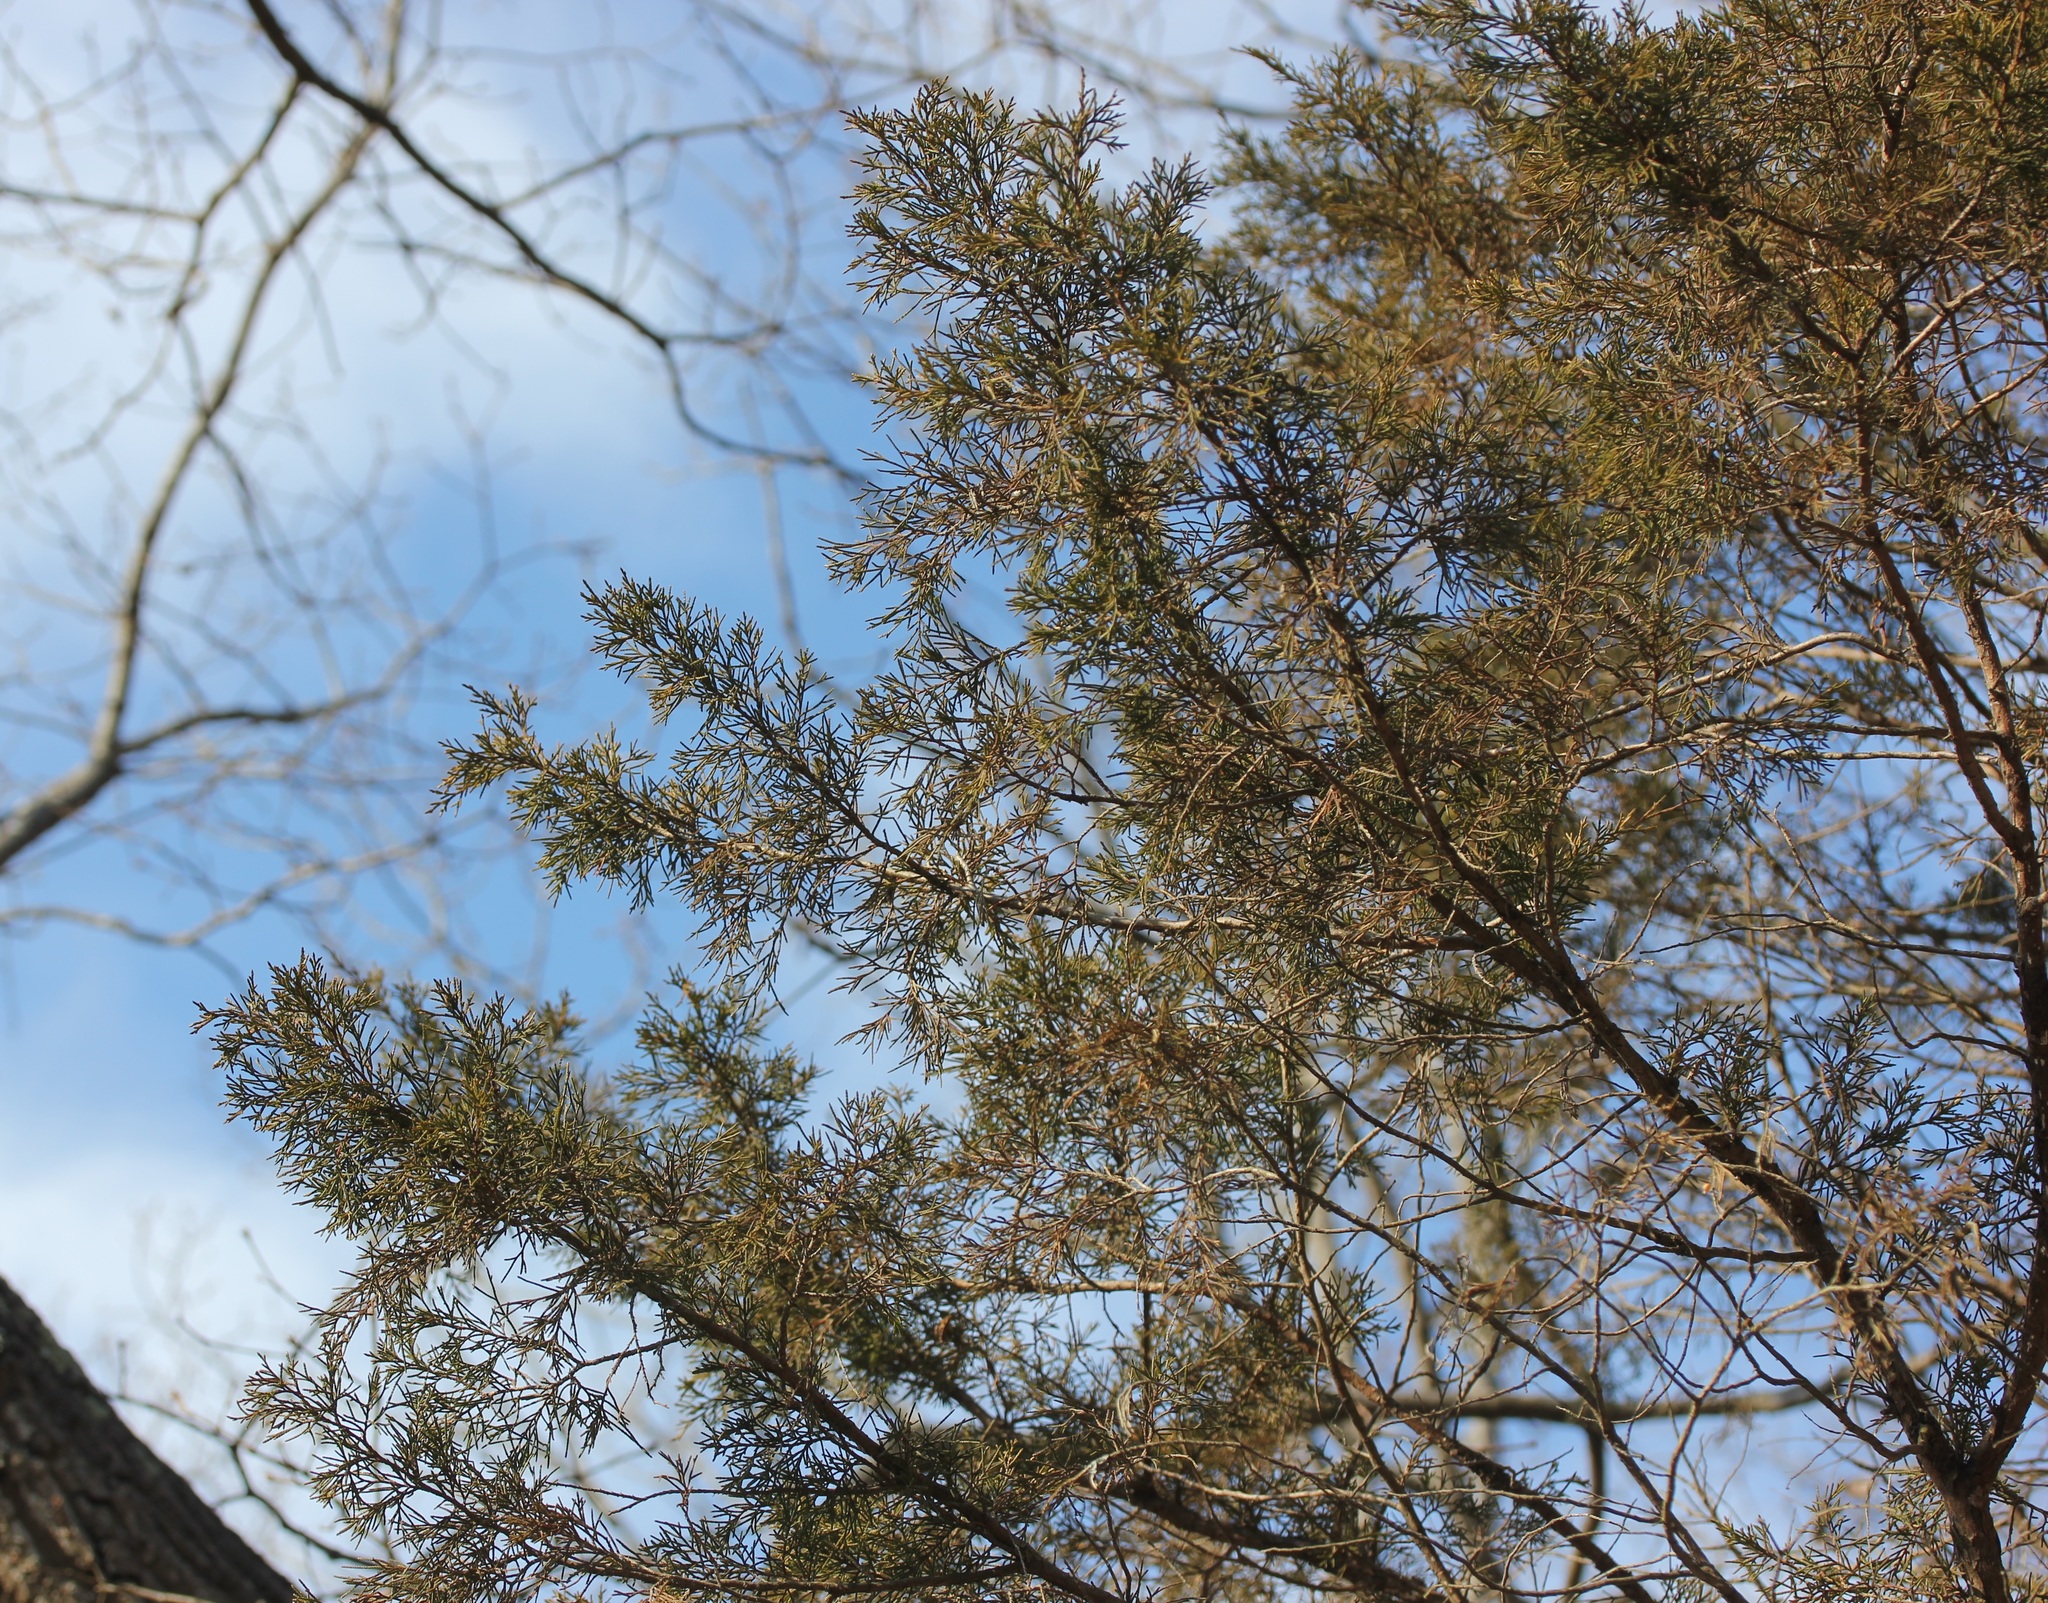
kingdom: Plantae
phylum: Tracheophyta
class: Pinopsida
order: Pinales
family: Cupressaceae
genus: Juniperus
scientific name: Juniperus virginiana
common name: Red juniper
